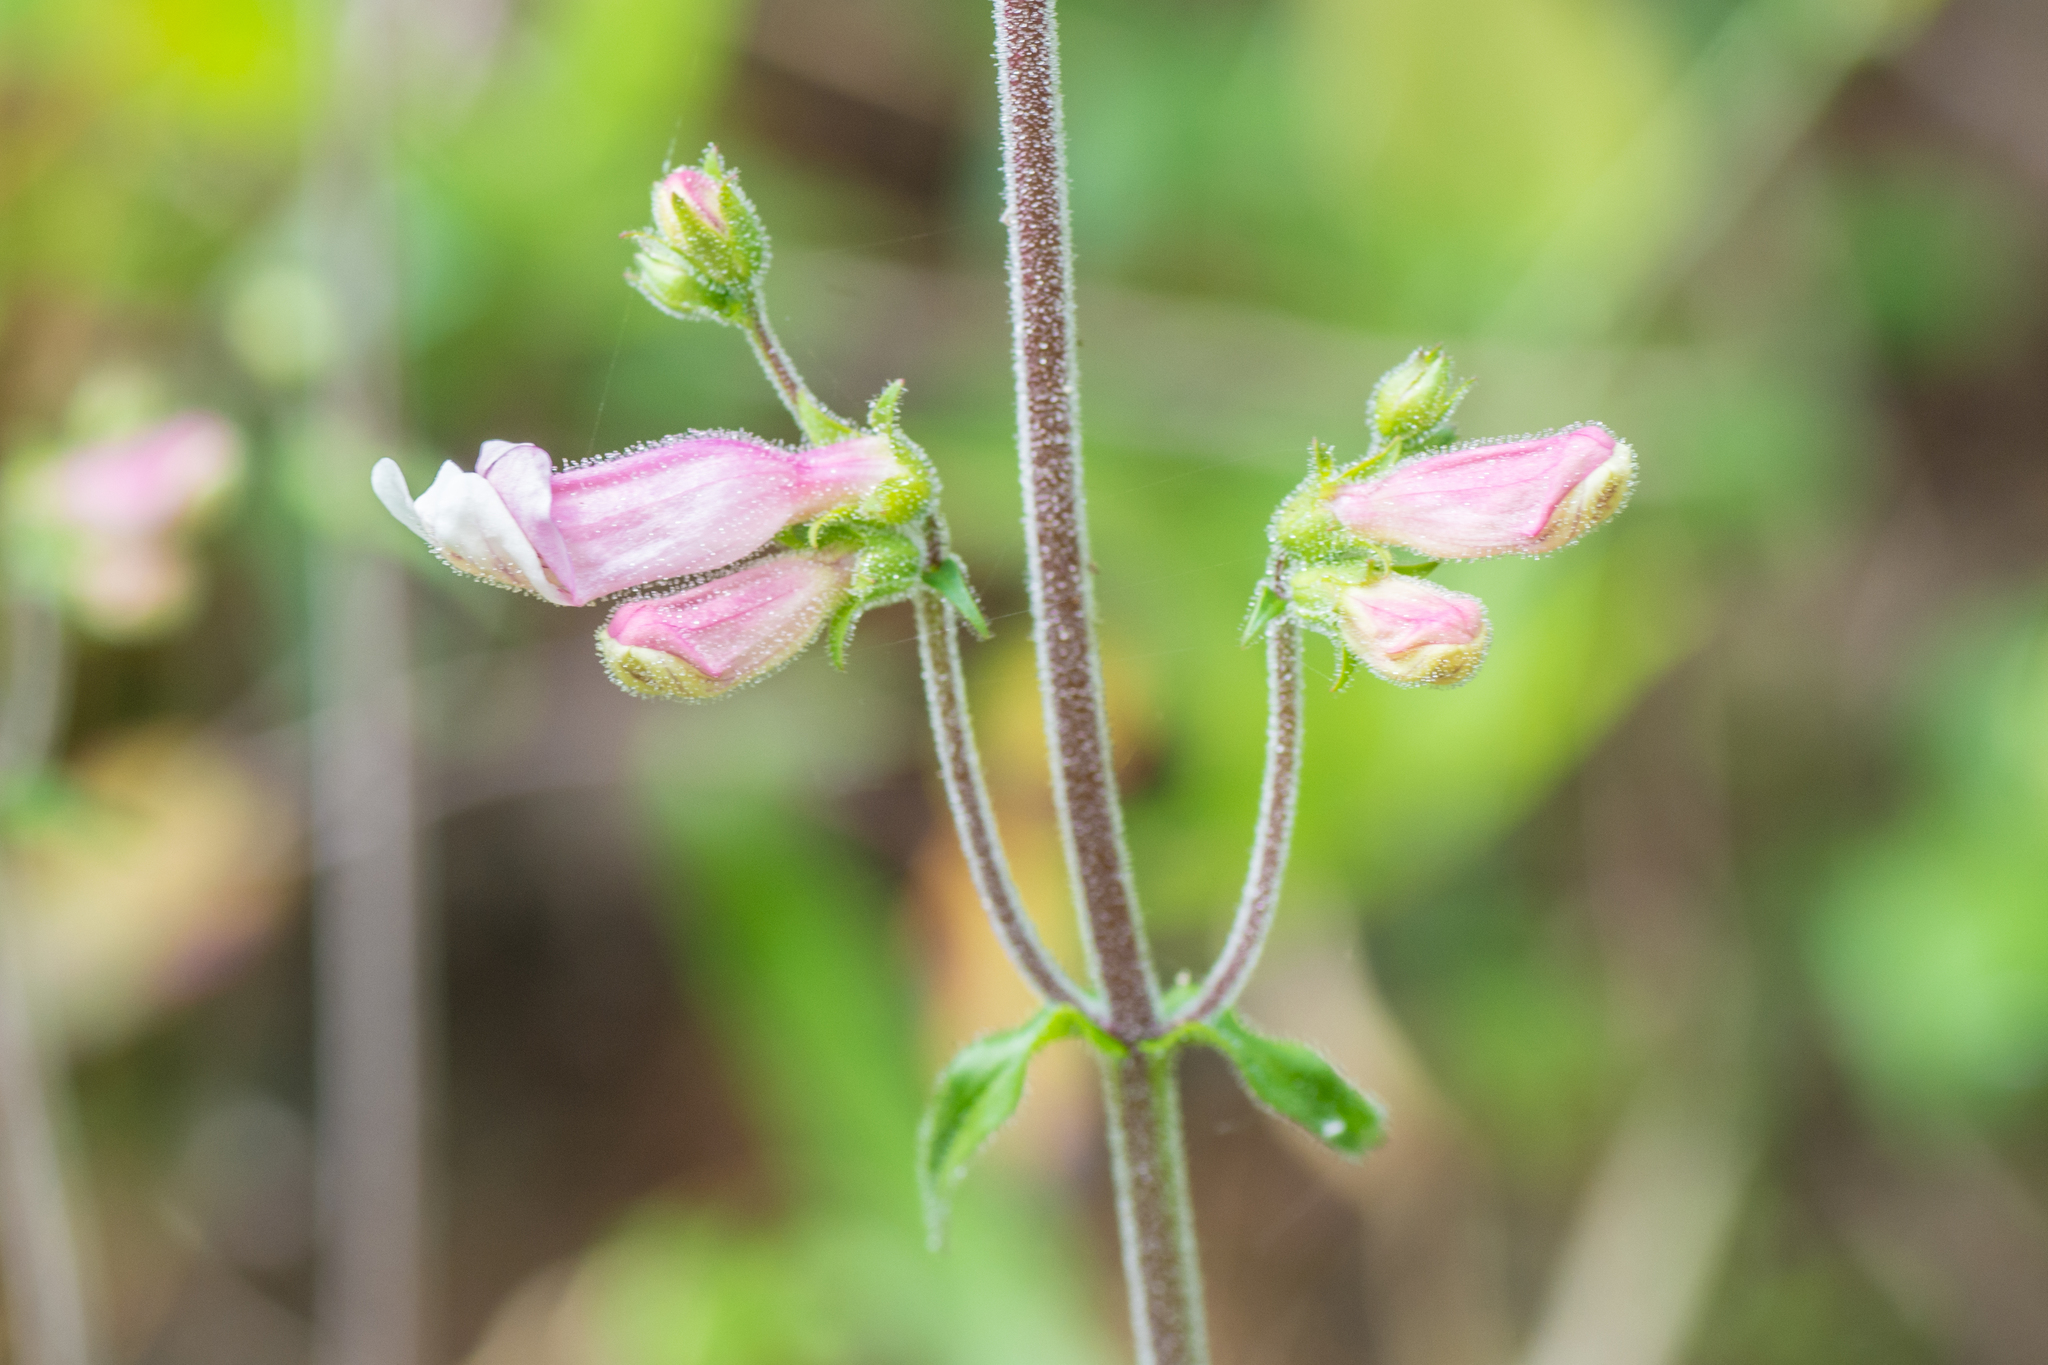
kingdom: Plantae
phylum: Tracheophyta
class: Magnoliopsida
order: Lamiales
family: Plantaginaceae
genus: Penstemon
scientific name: Penstemon australis
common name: Southeastern beardtongue
